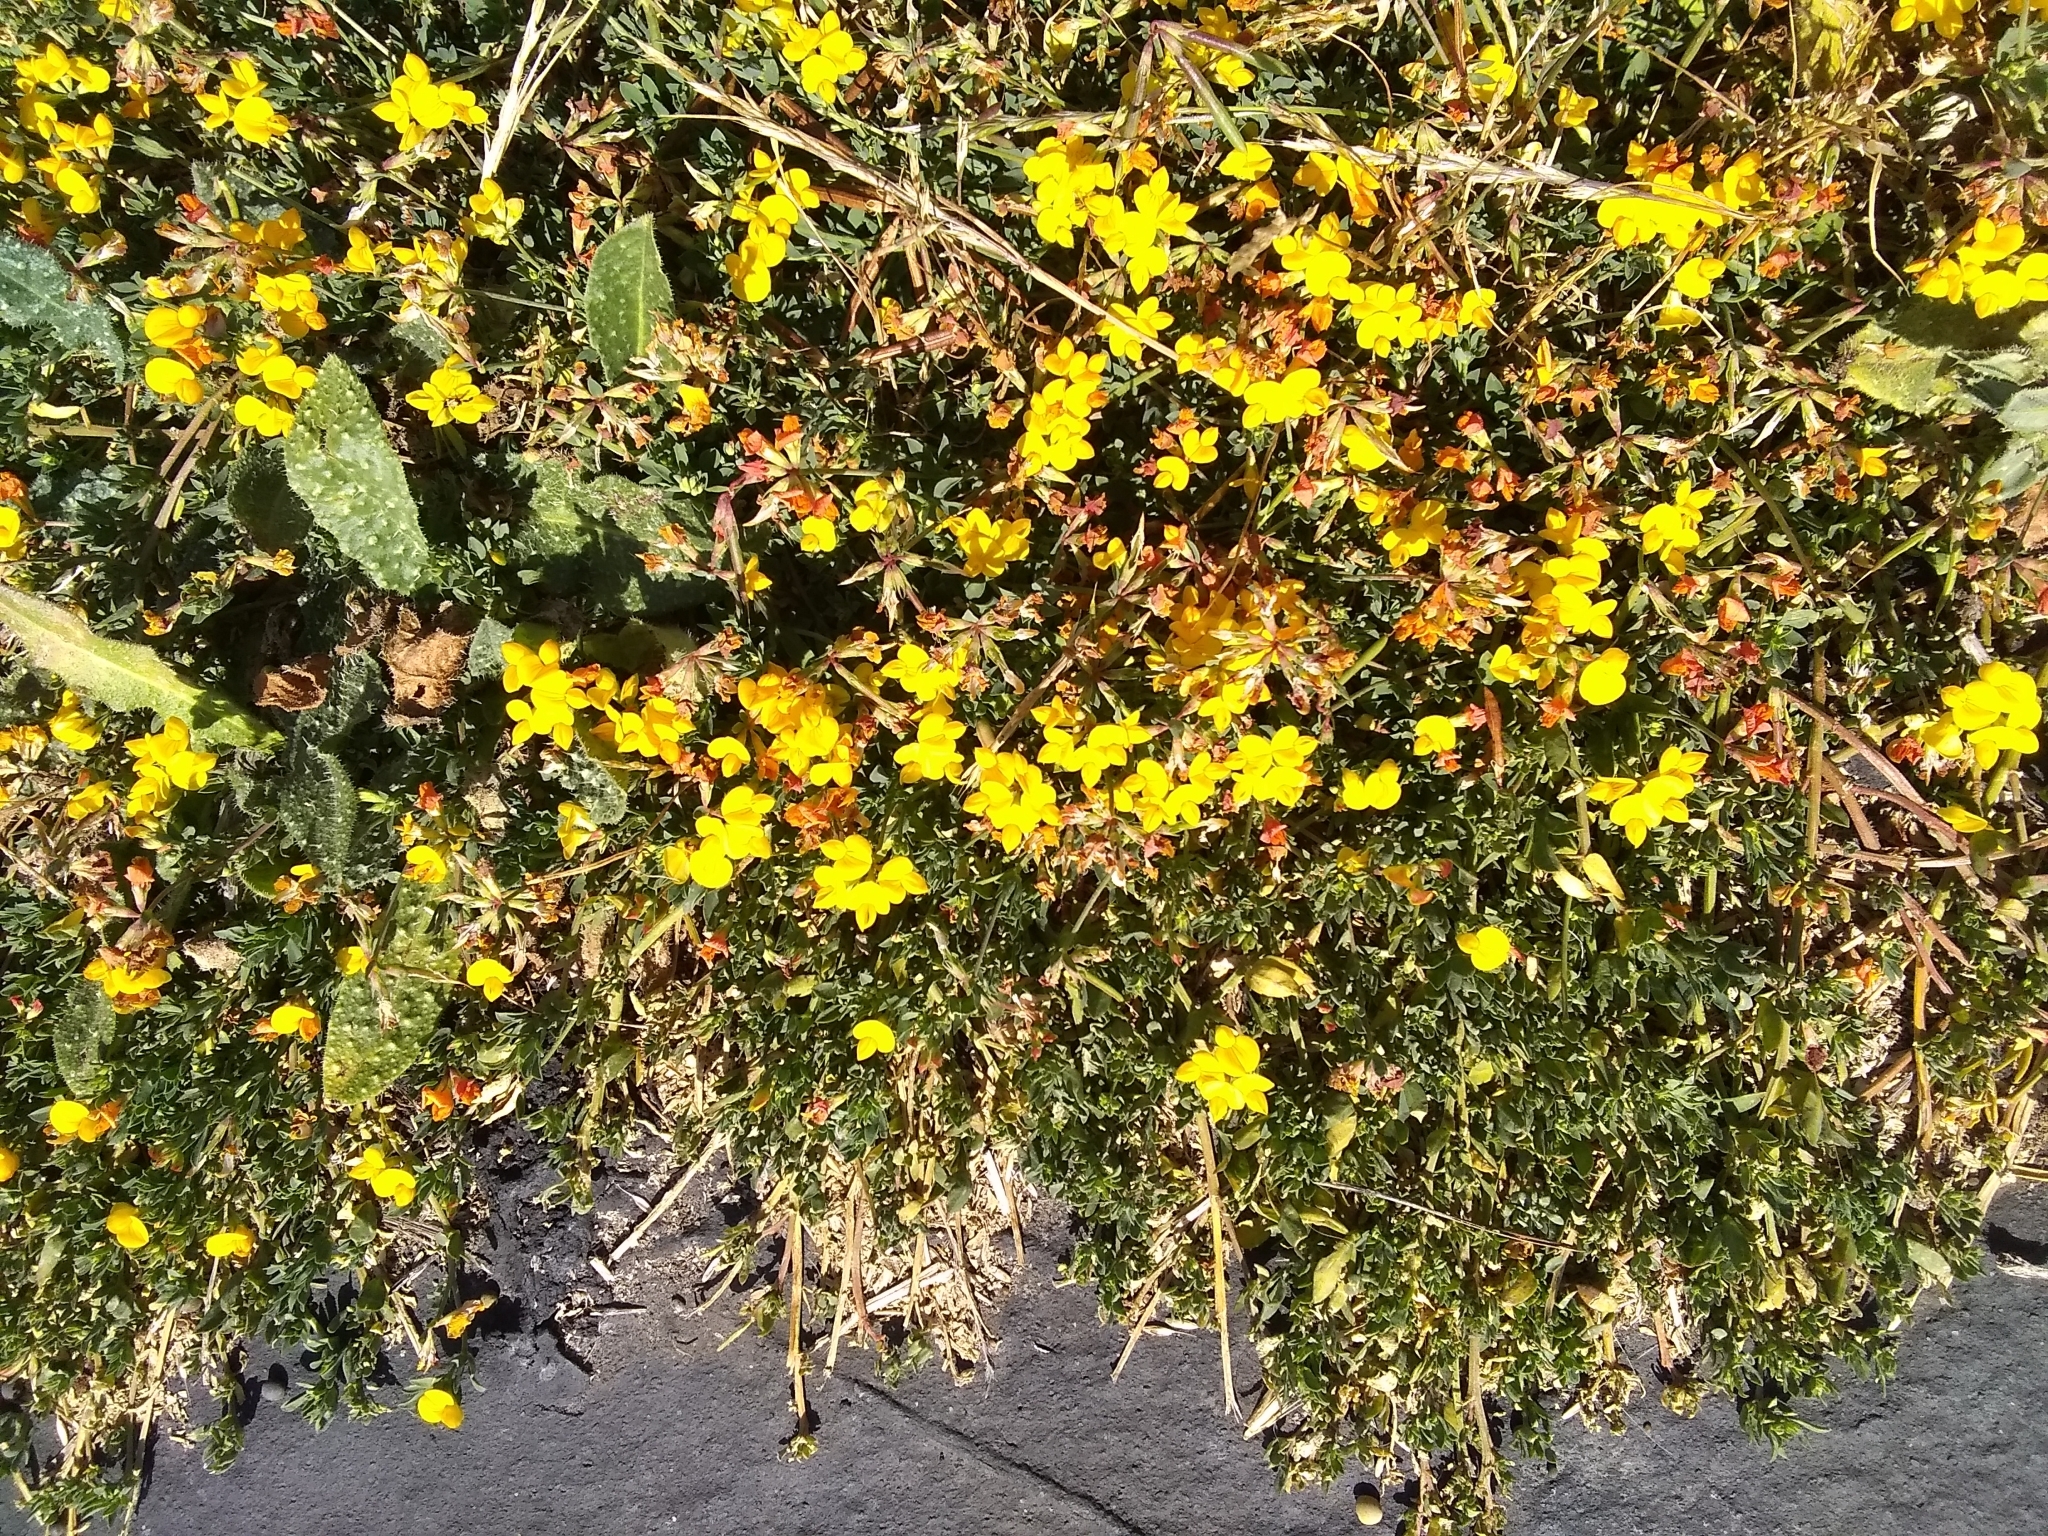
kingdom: Plantae
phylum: Tracheophyta
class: Magnoliopsida
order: Fabales
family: Fabaceae
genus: Lotus
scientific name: Lotus corniculatus
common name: Common bird's-foot-trefoil
